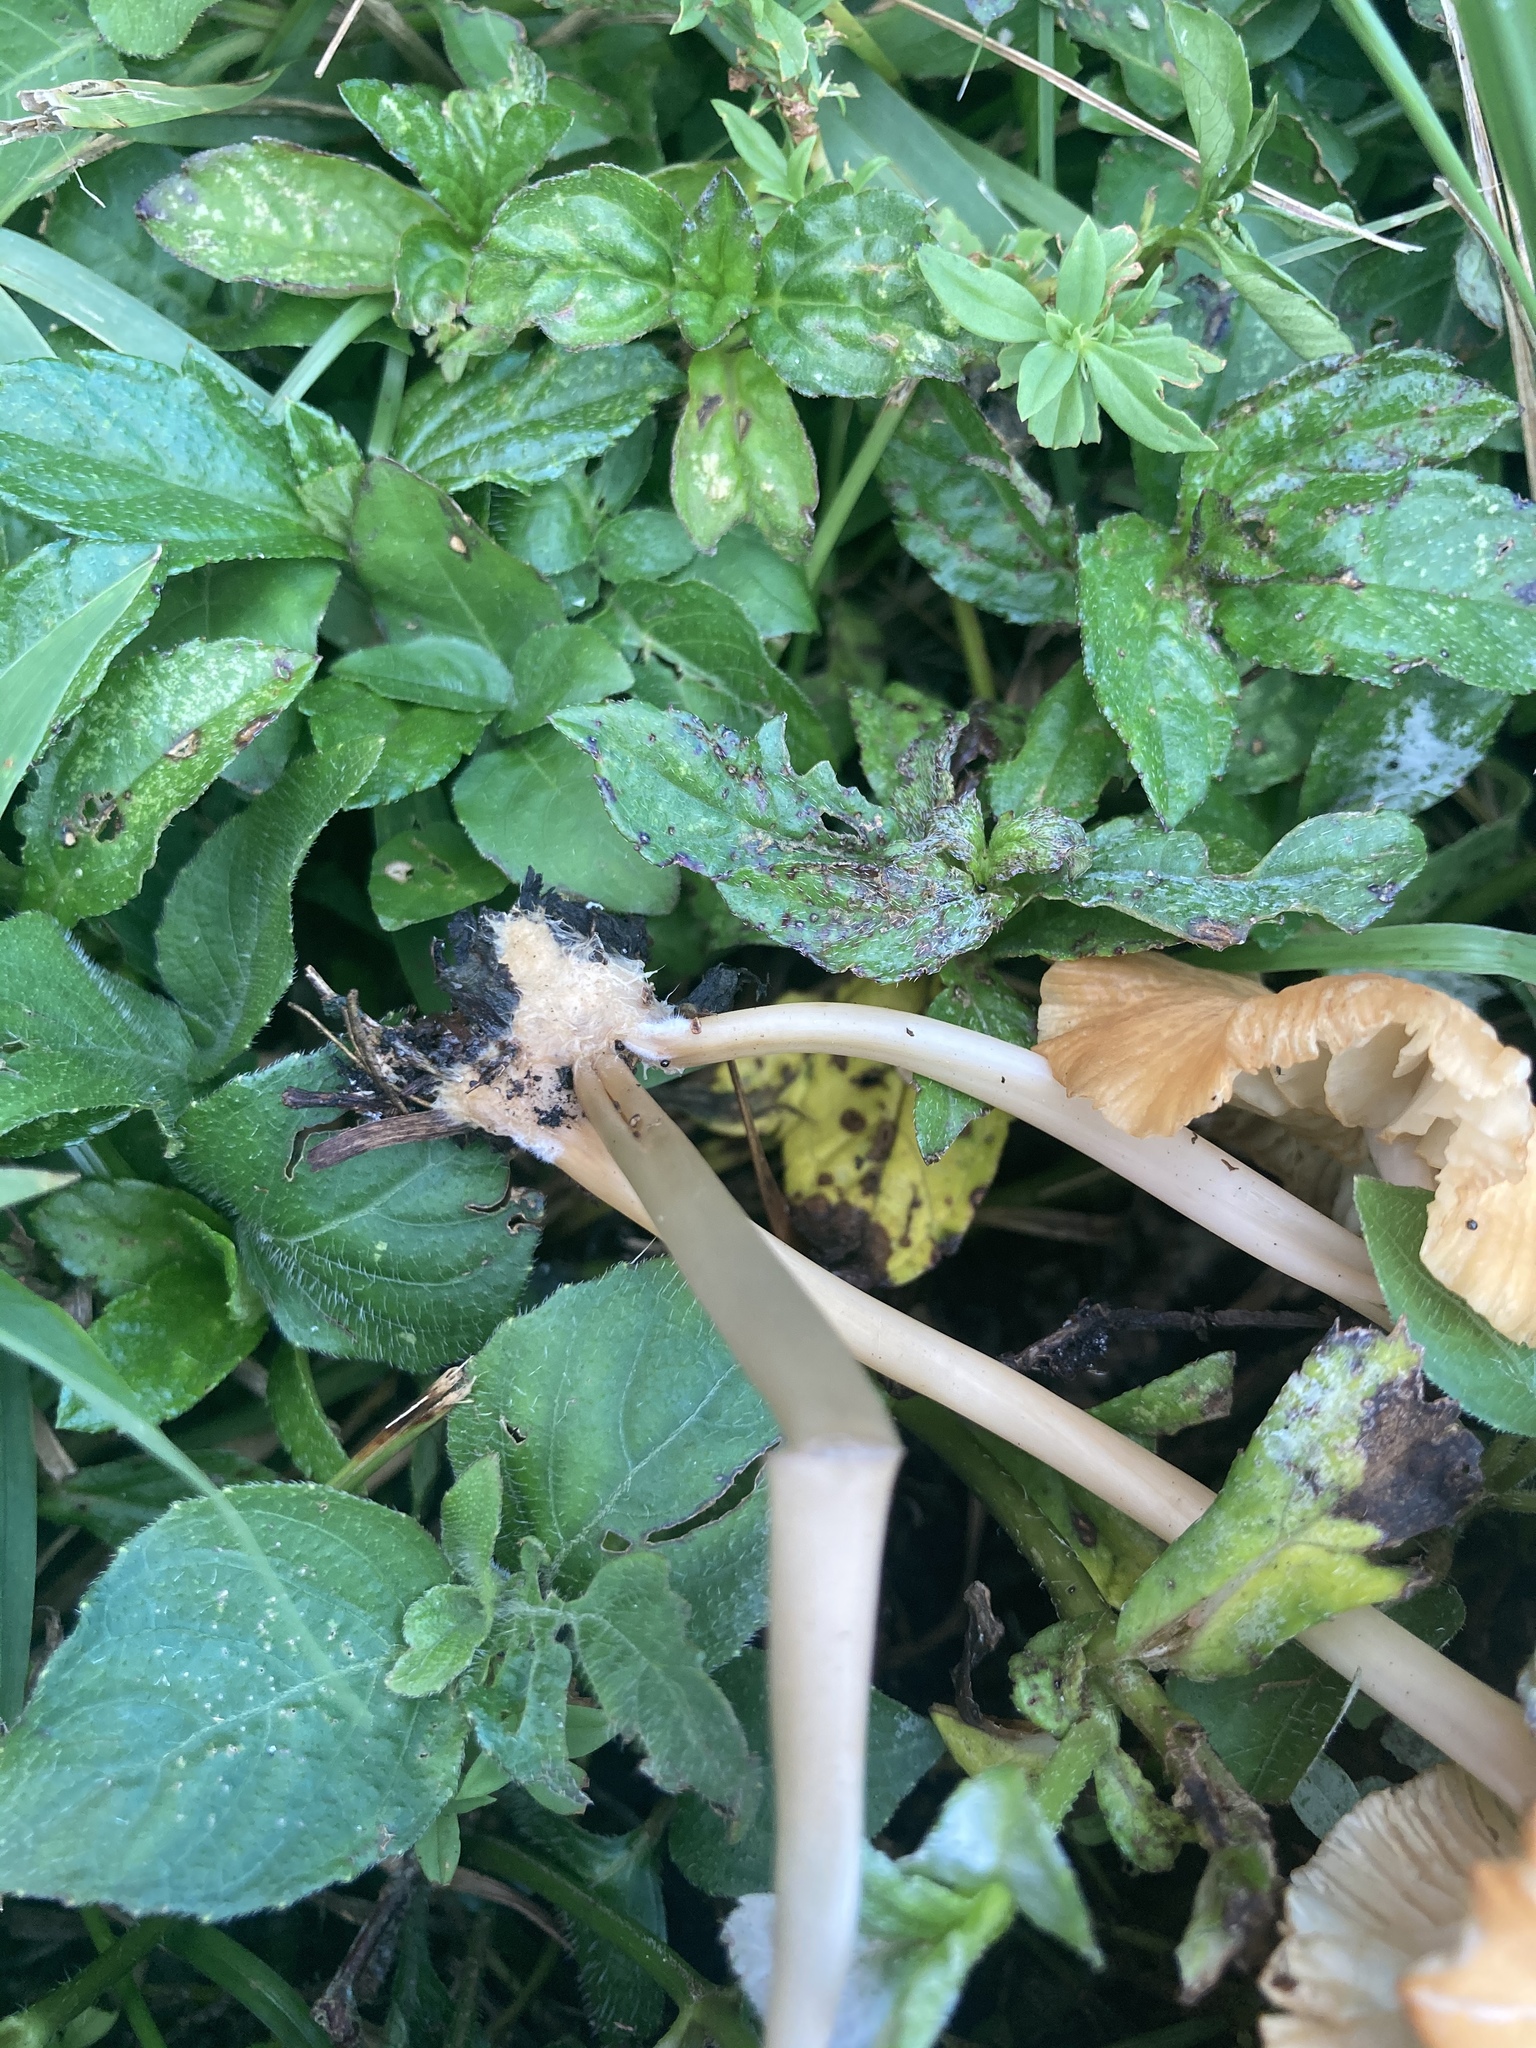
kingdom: Fungi
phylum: Basidiomycota
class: Agaricomycetes
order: Agaricales
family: Marasmiaceae
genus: Marasmius
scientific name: Marasmius vagus
